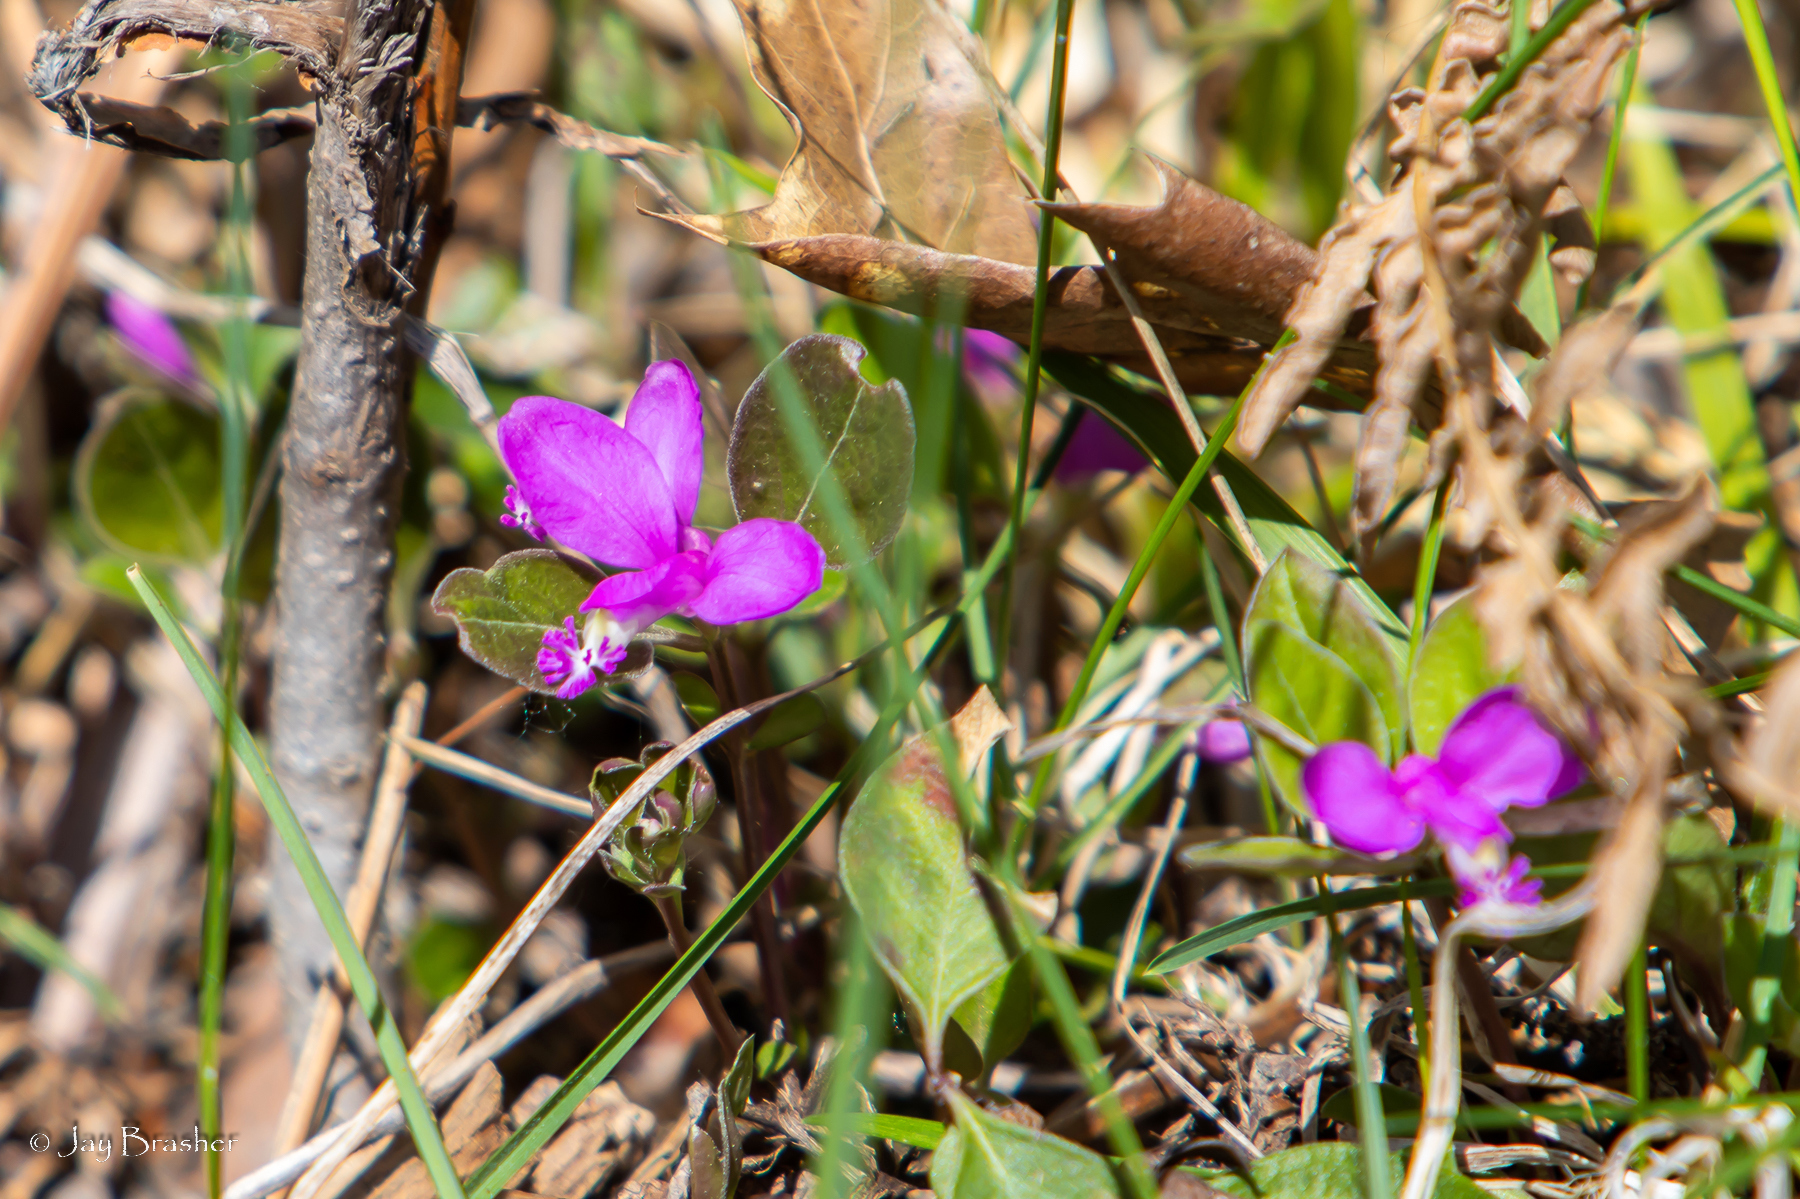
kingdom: Plantae
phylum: Tracheophyta
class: Magnoliopsida
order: Fabales
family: Polygalaceae
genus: Polygaloides
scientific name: Polygaloides paucifolia
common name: Bird-on-the-wing
